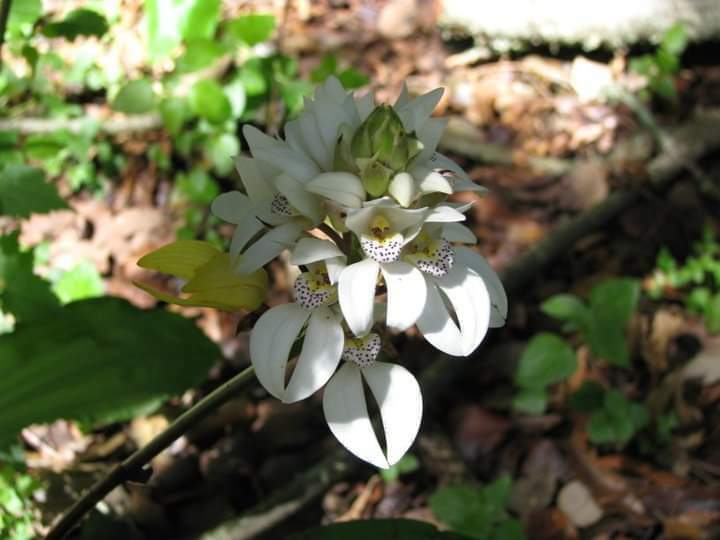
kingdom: Plantae
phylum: Tracheophyta
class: Liliopsida
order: Asparagales
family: Orchidaceae
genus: Govenia
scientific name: Govenia capitata
